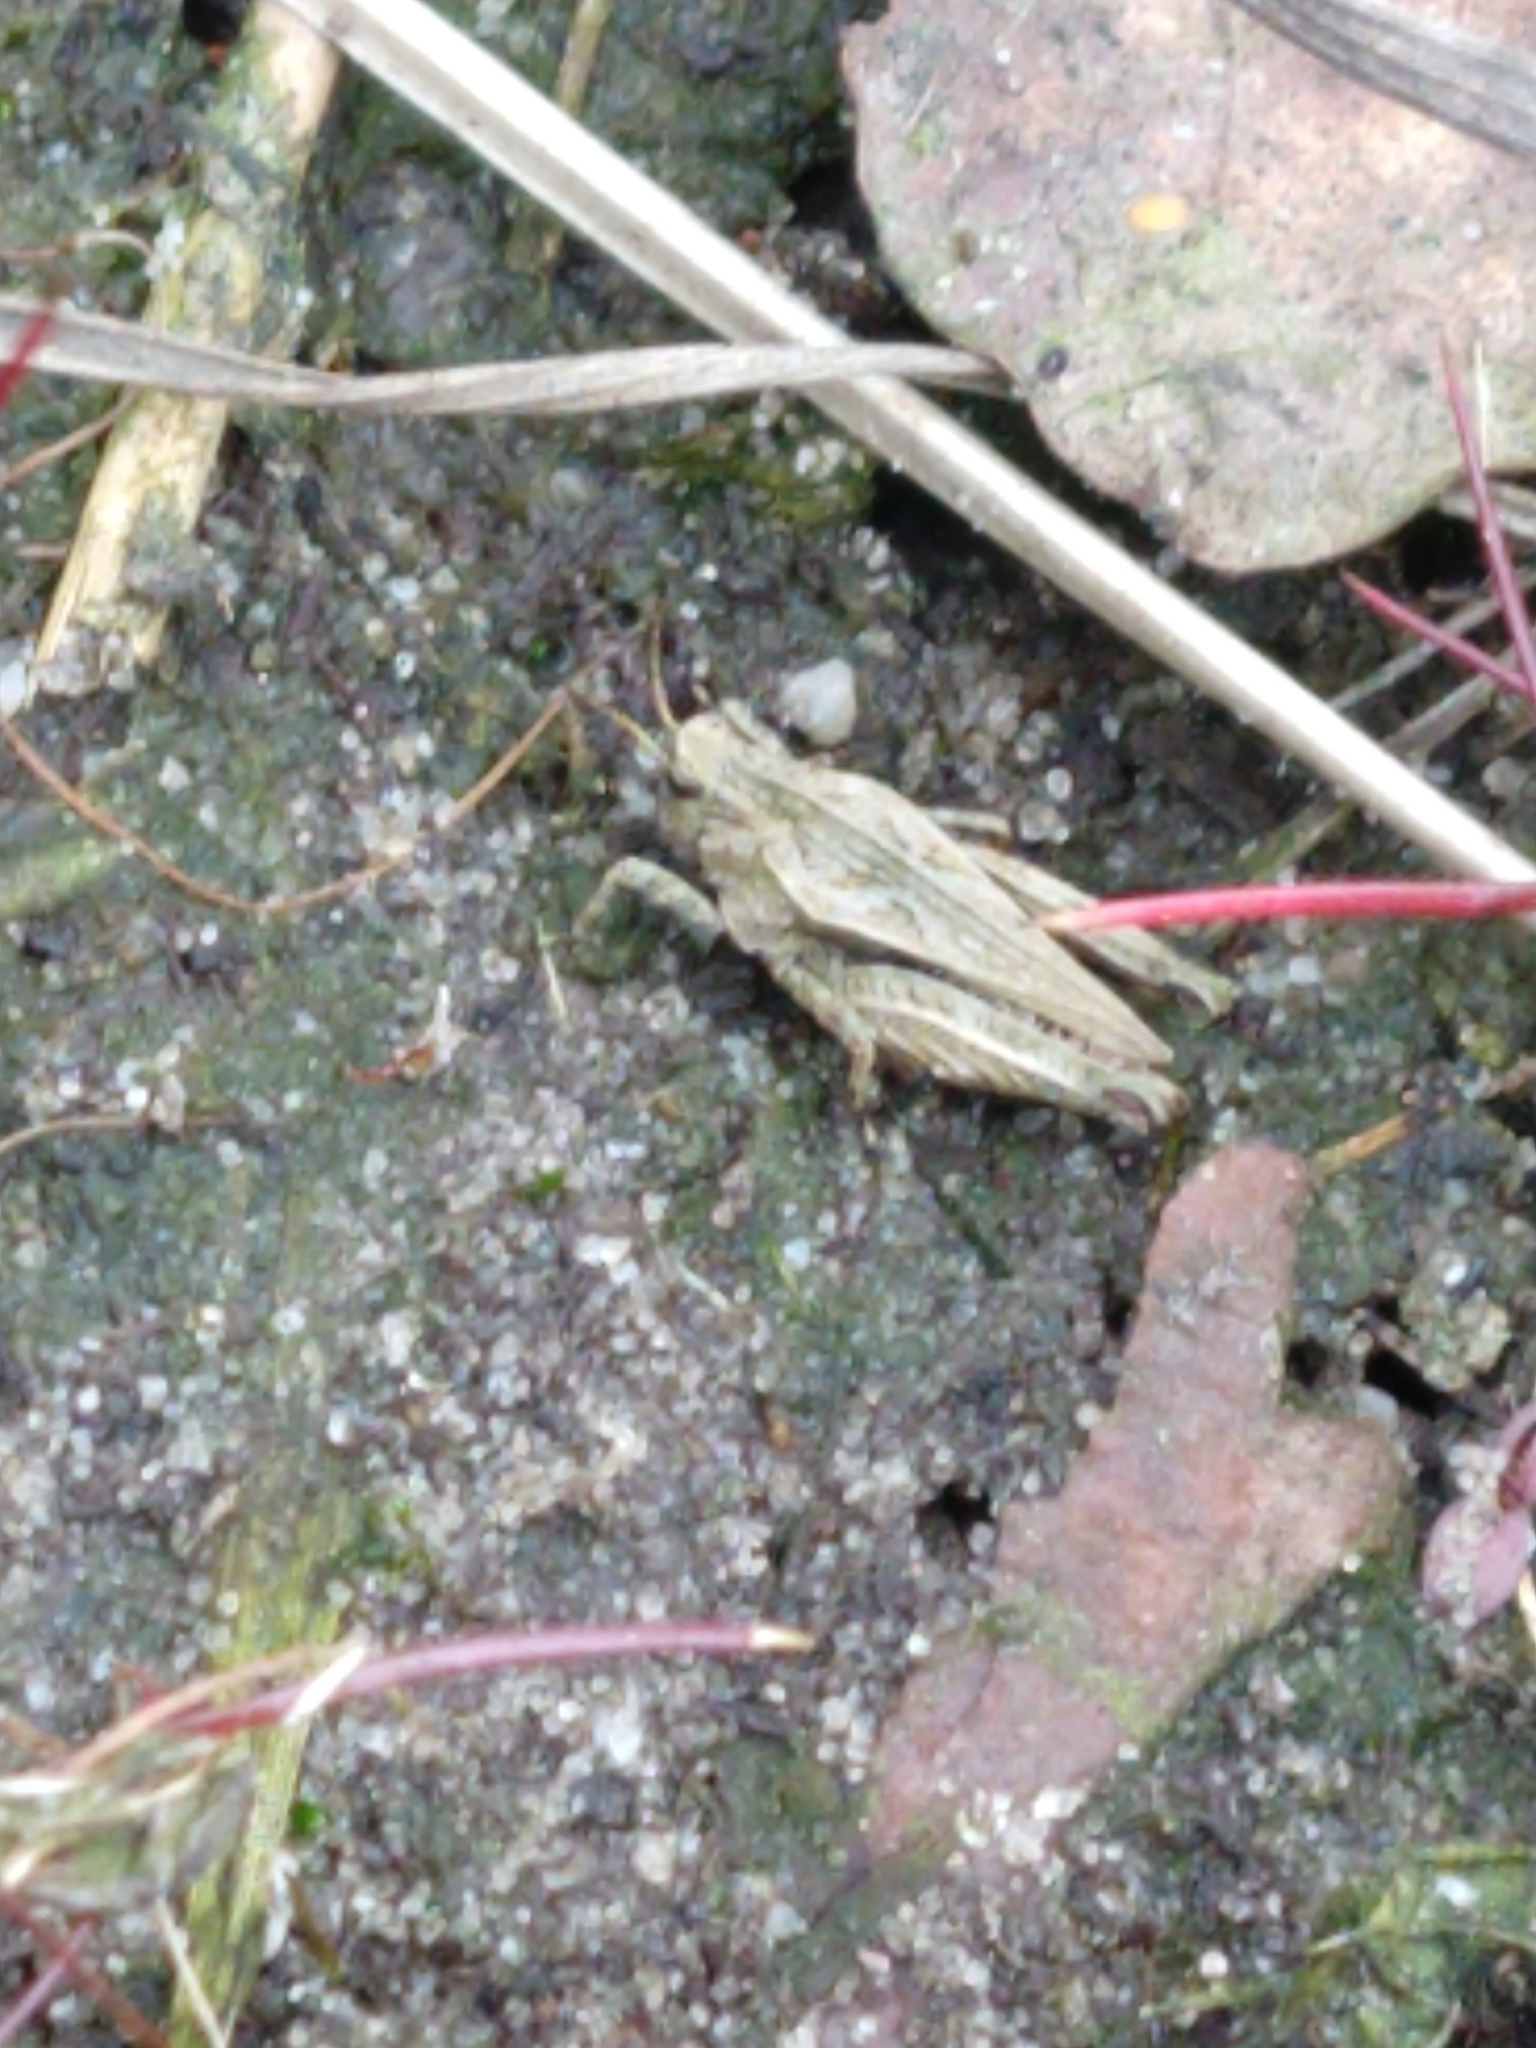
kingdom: Animalia
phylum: Arthropoda
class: Insecta
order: Orthoptera
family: Tetrigidae
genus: Tetrix
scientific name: Tetrix undulata
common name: Common groundhopper
